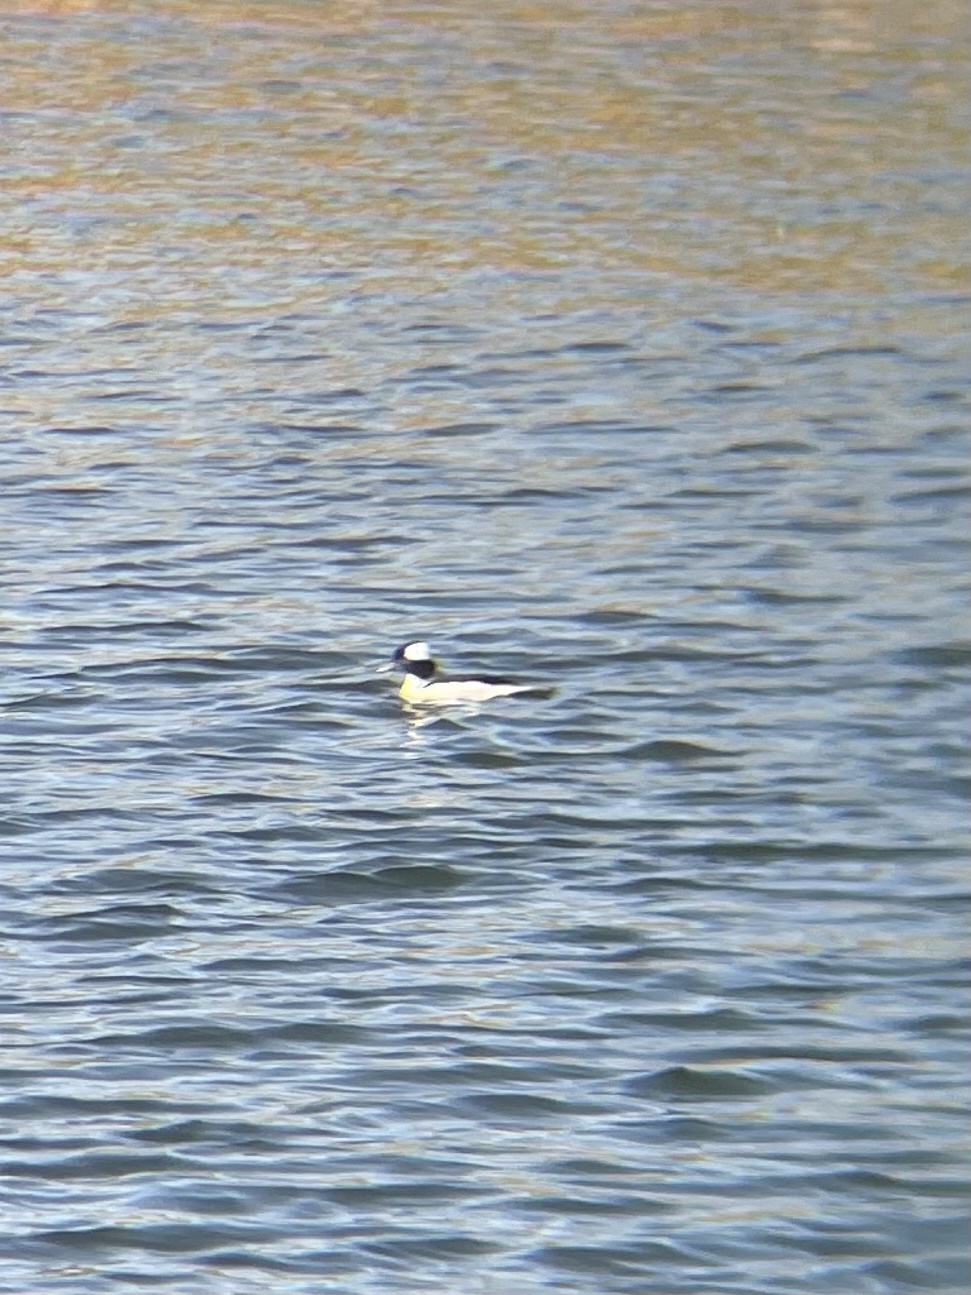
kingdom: Animalia
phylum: Chordata
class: Aves
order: Anseriformes
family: Anatidae
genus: Bucephala
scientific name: Bucephala albeola
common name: Bufflehead
